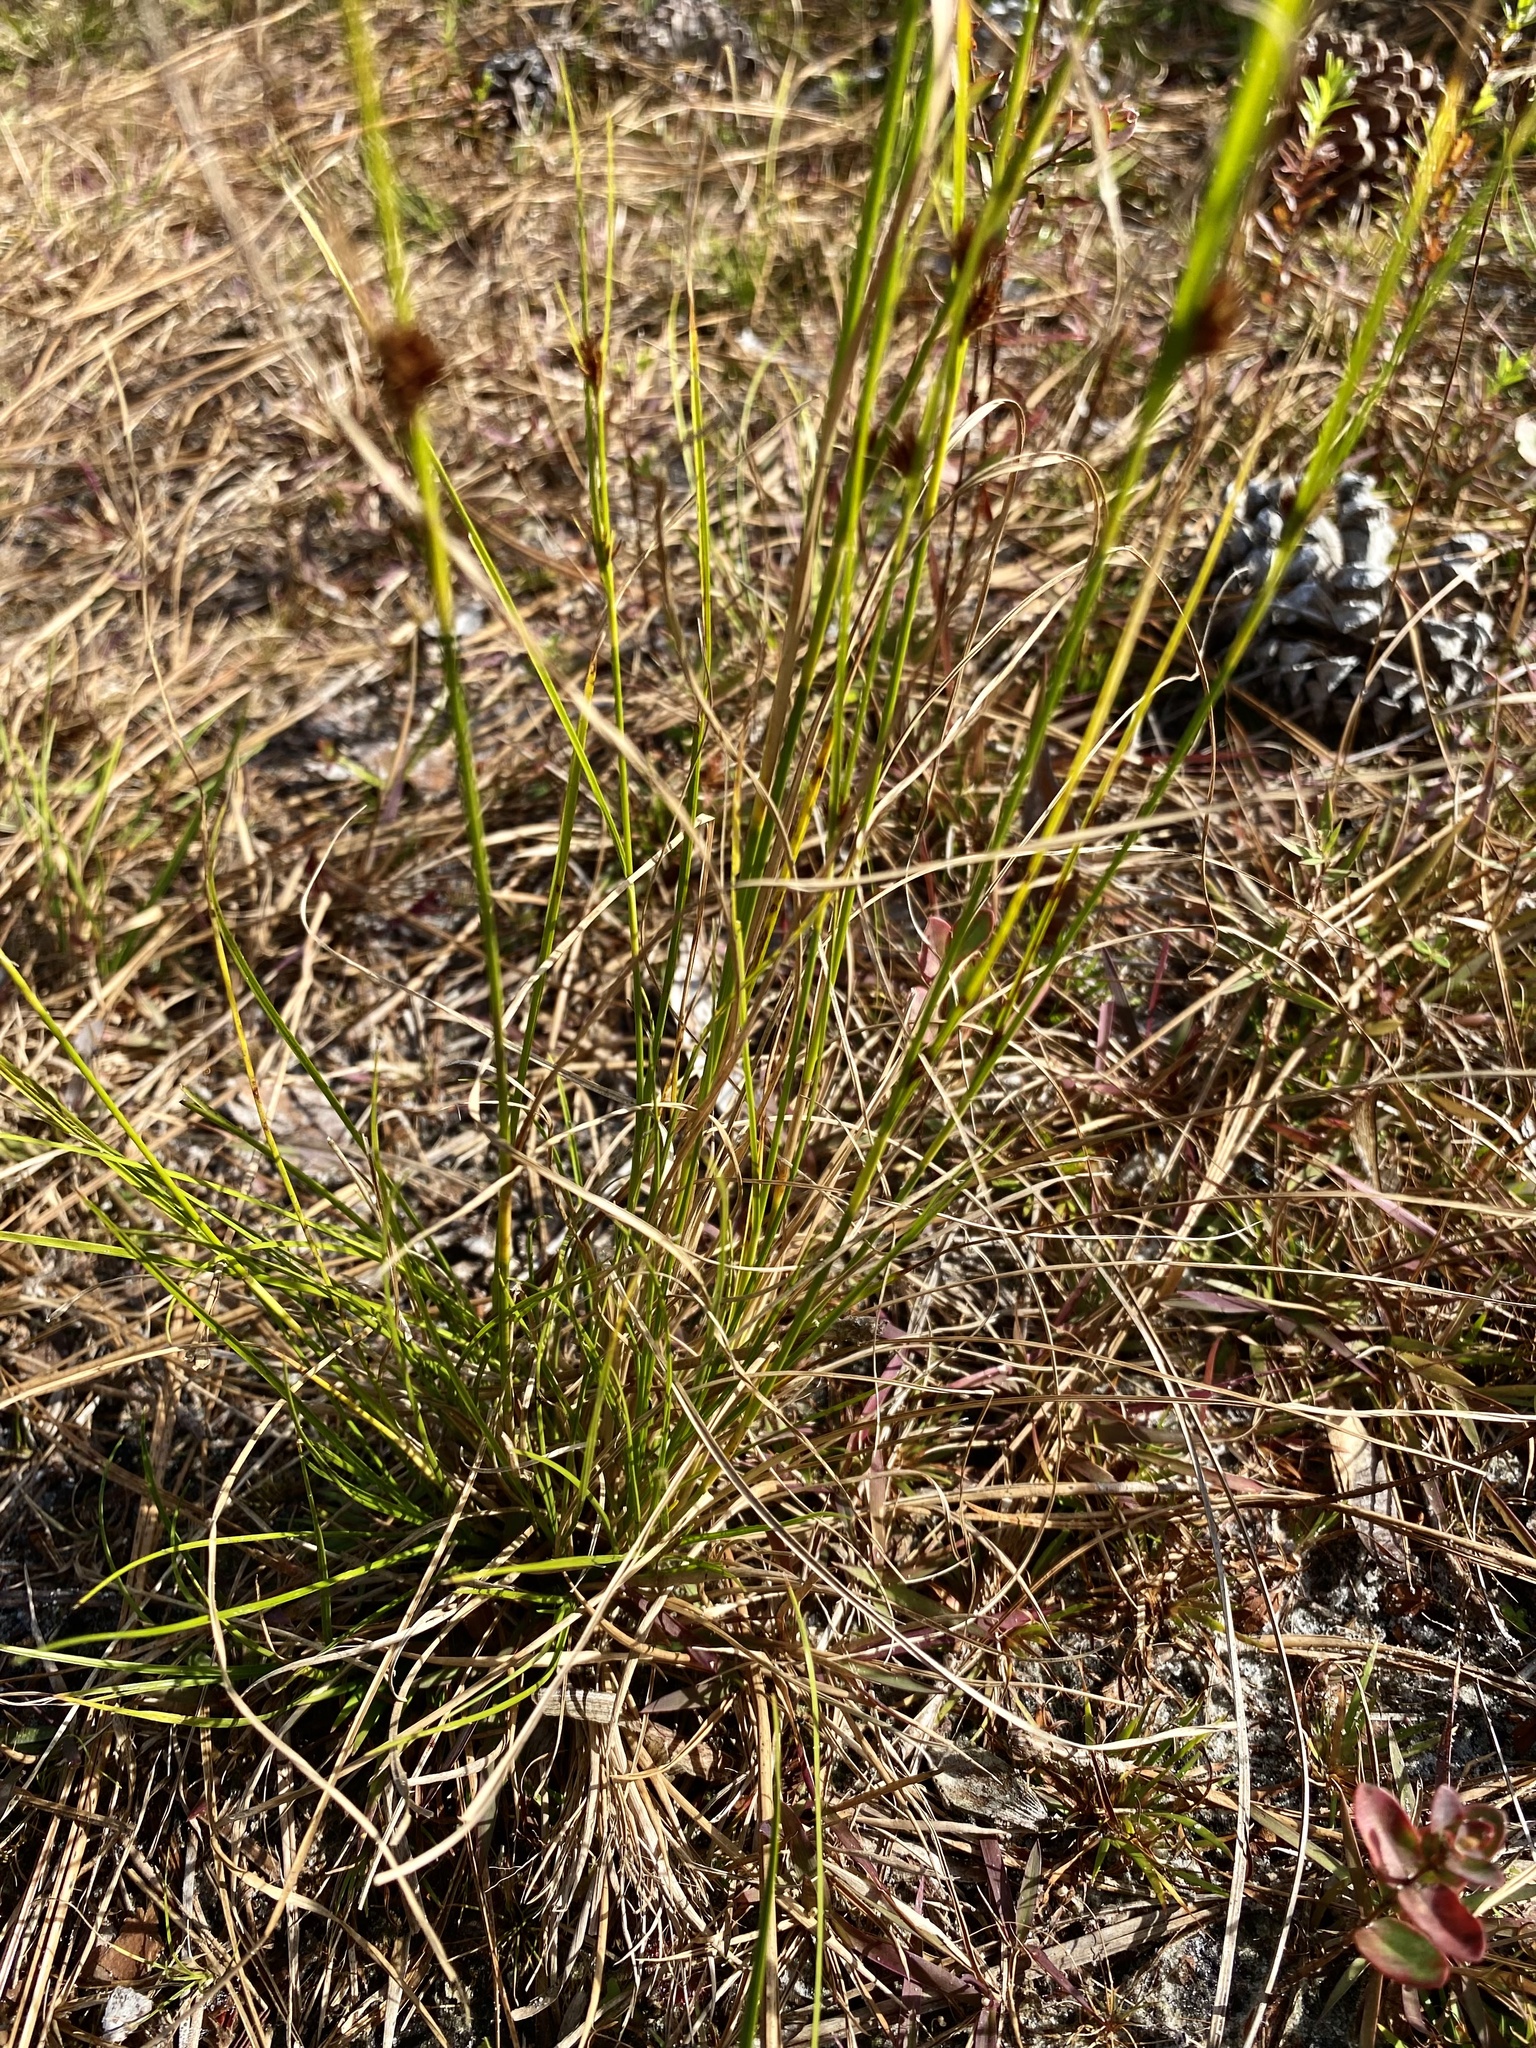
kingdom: Plantae
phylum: Tracheophyta
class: Liliopsida
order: Poales
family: Cyperaceae
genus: Rhynchospora
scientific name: Rhynchospora microcephala
